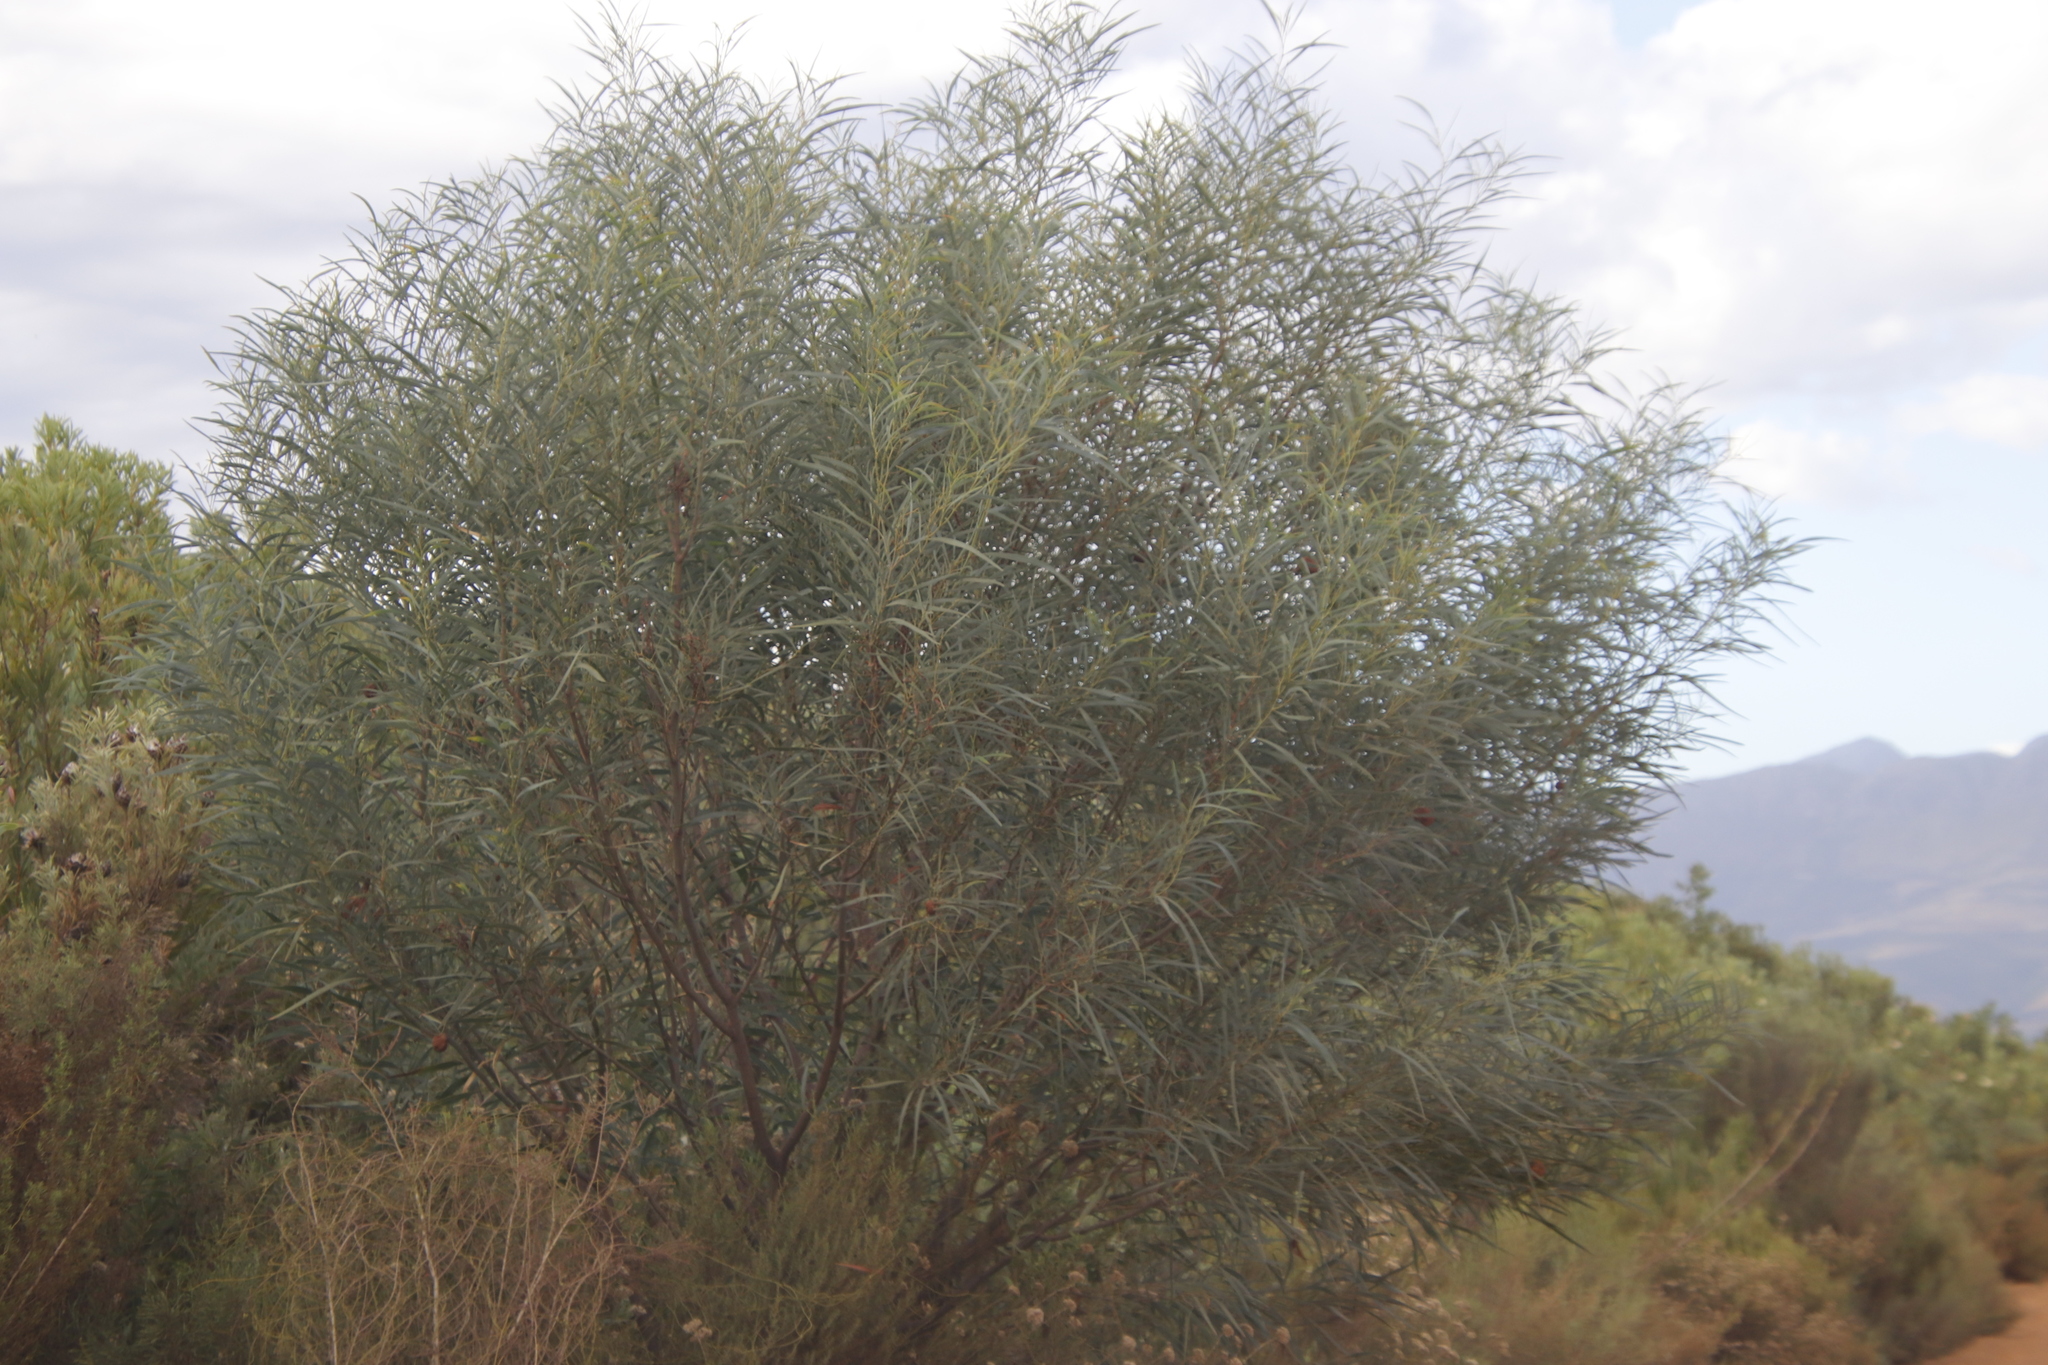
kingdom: Plantae
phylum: Tracheophyta
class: Magnoliopsida
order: Fabales
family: Fabaceae
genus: Acacia
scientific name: Acacia saligna
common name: Orange wattle
